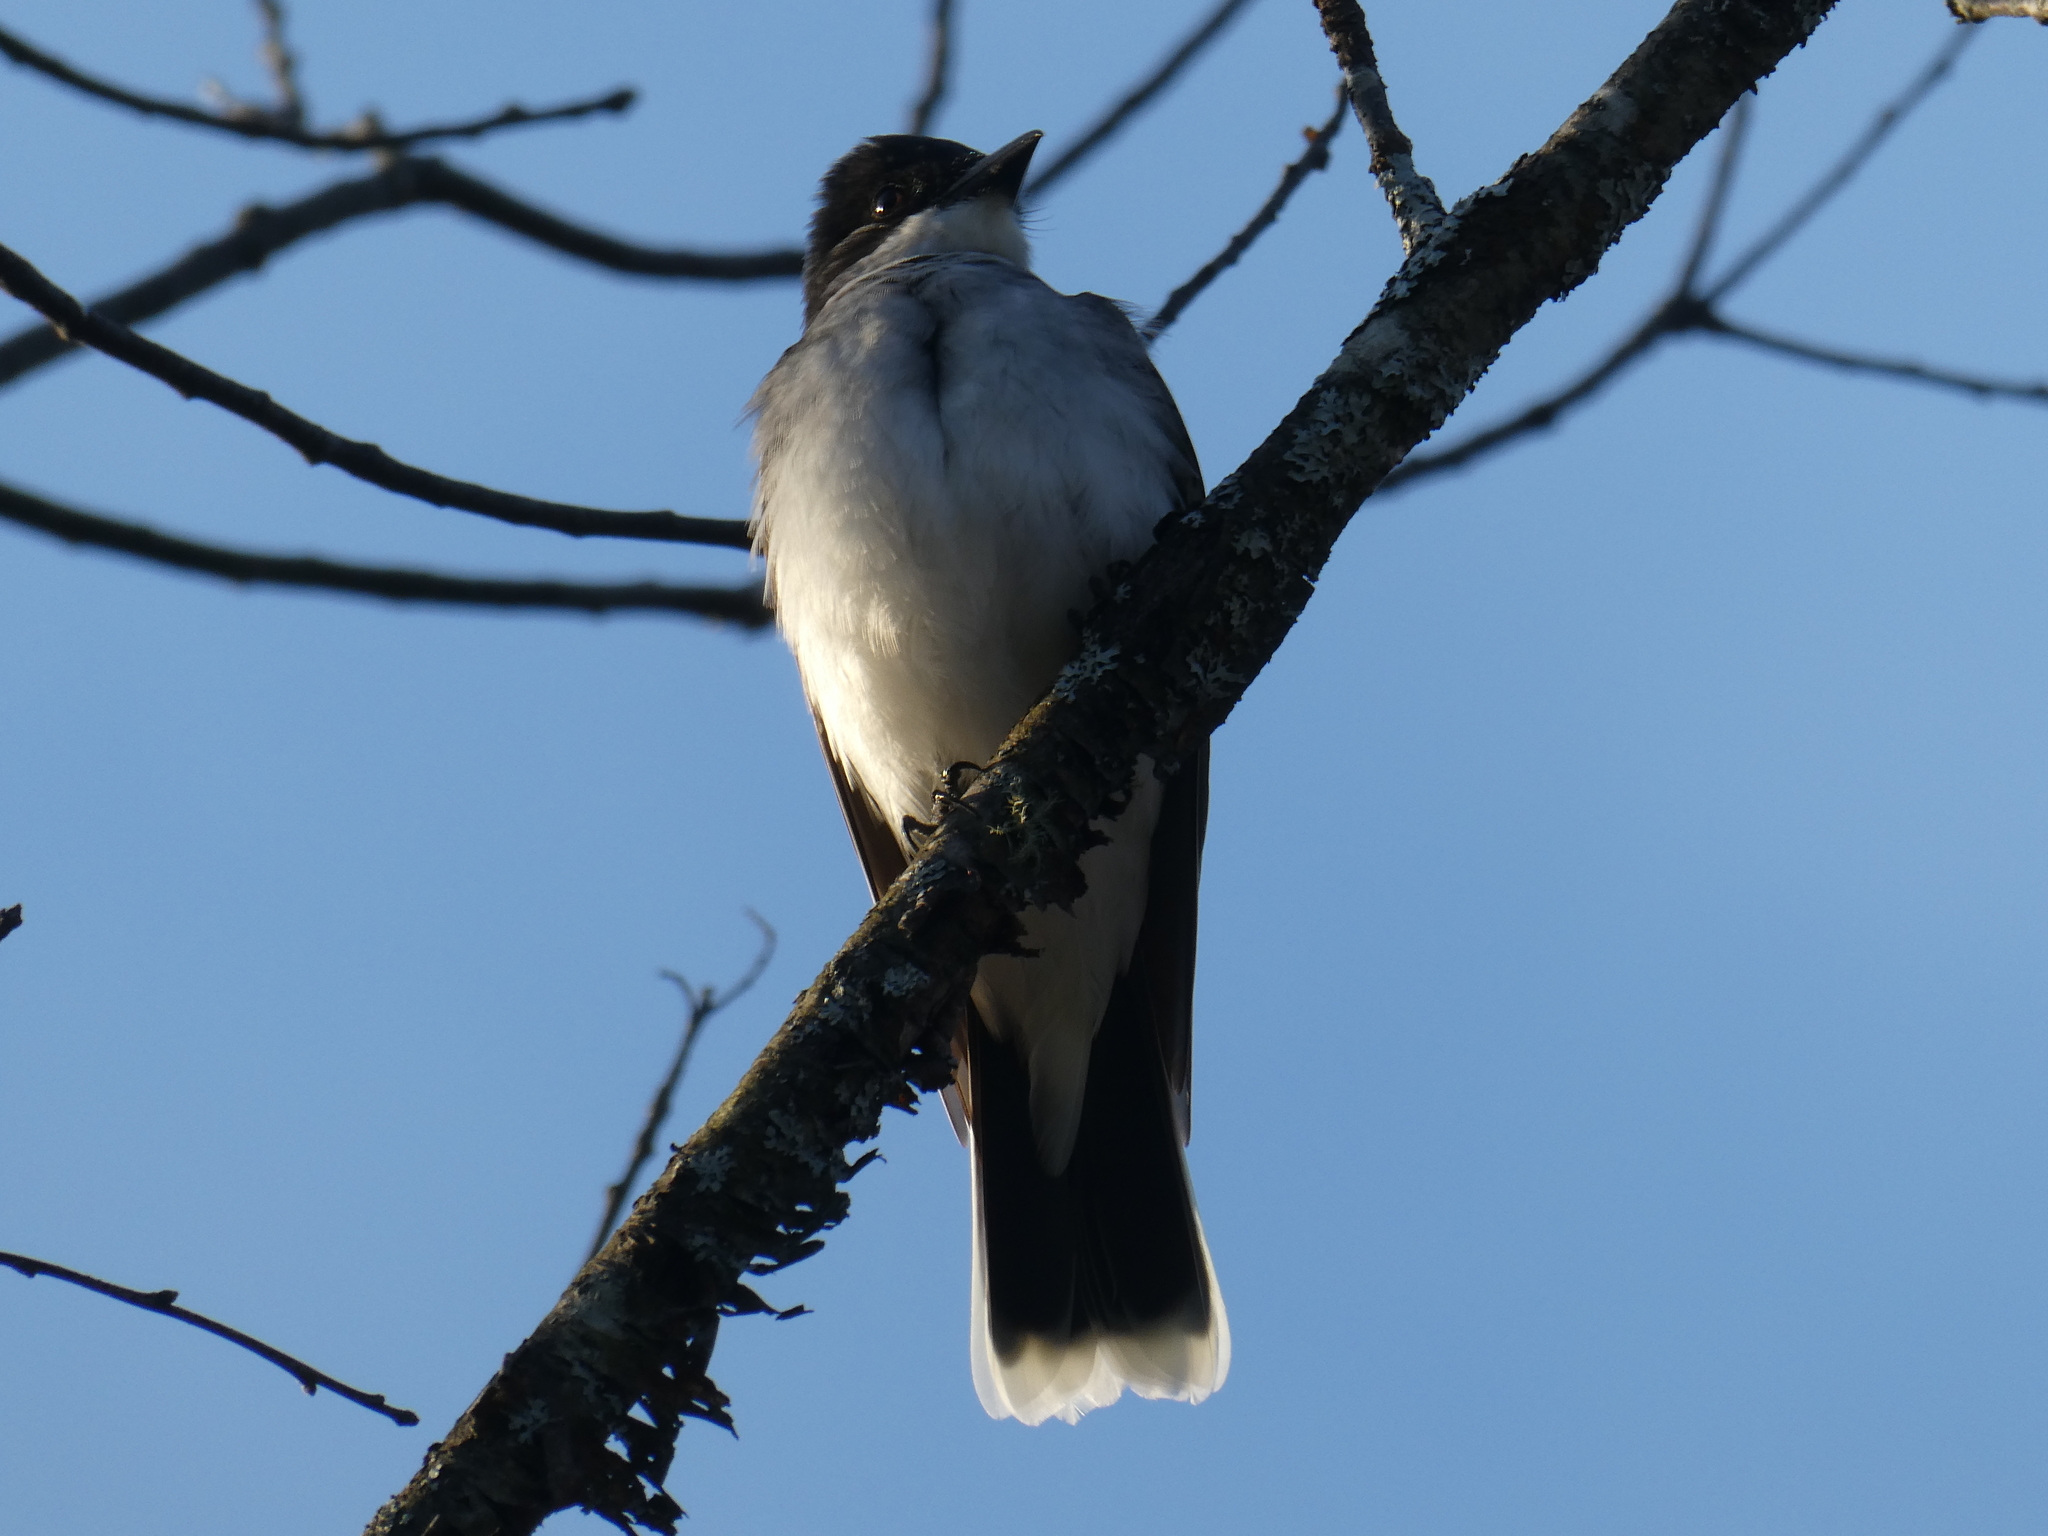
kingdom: Animalia
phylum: Chordata
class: Aves
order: Passeriformes
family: Tyrannidae
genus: Tyrannus
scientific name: Tyrannus tyrannus
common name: Eastern kingbird
